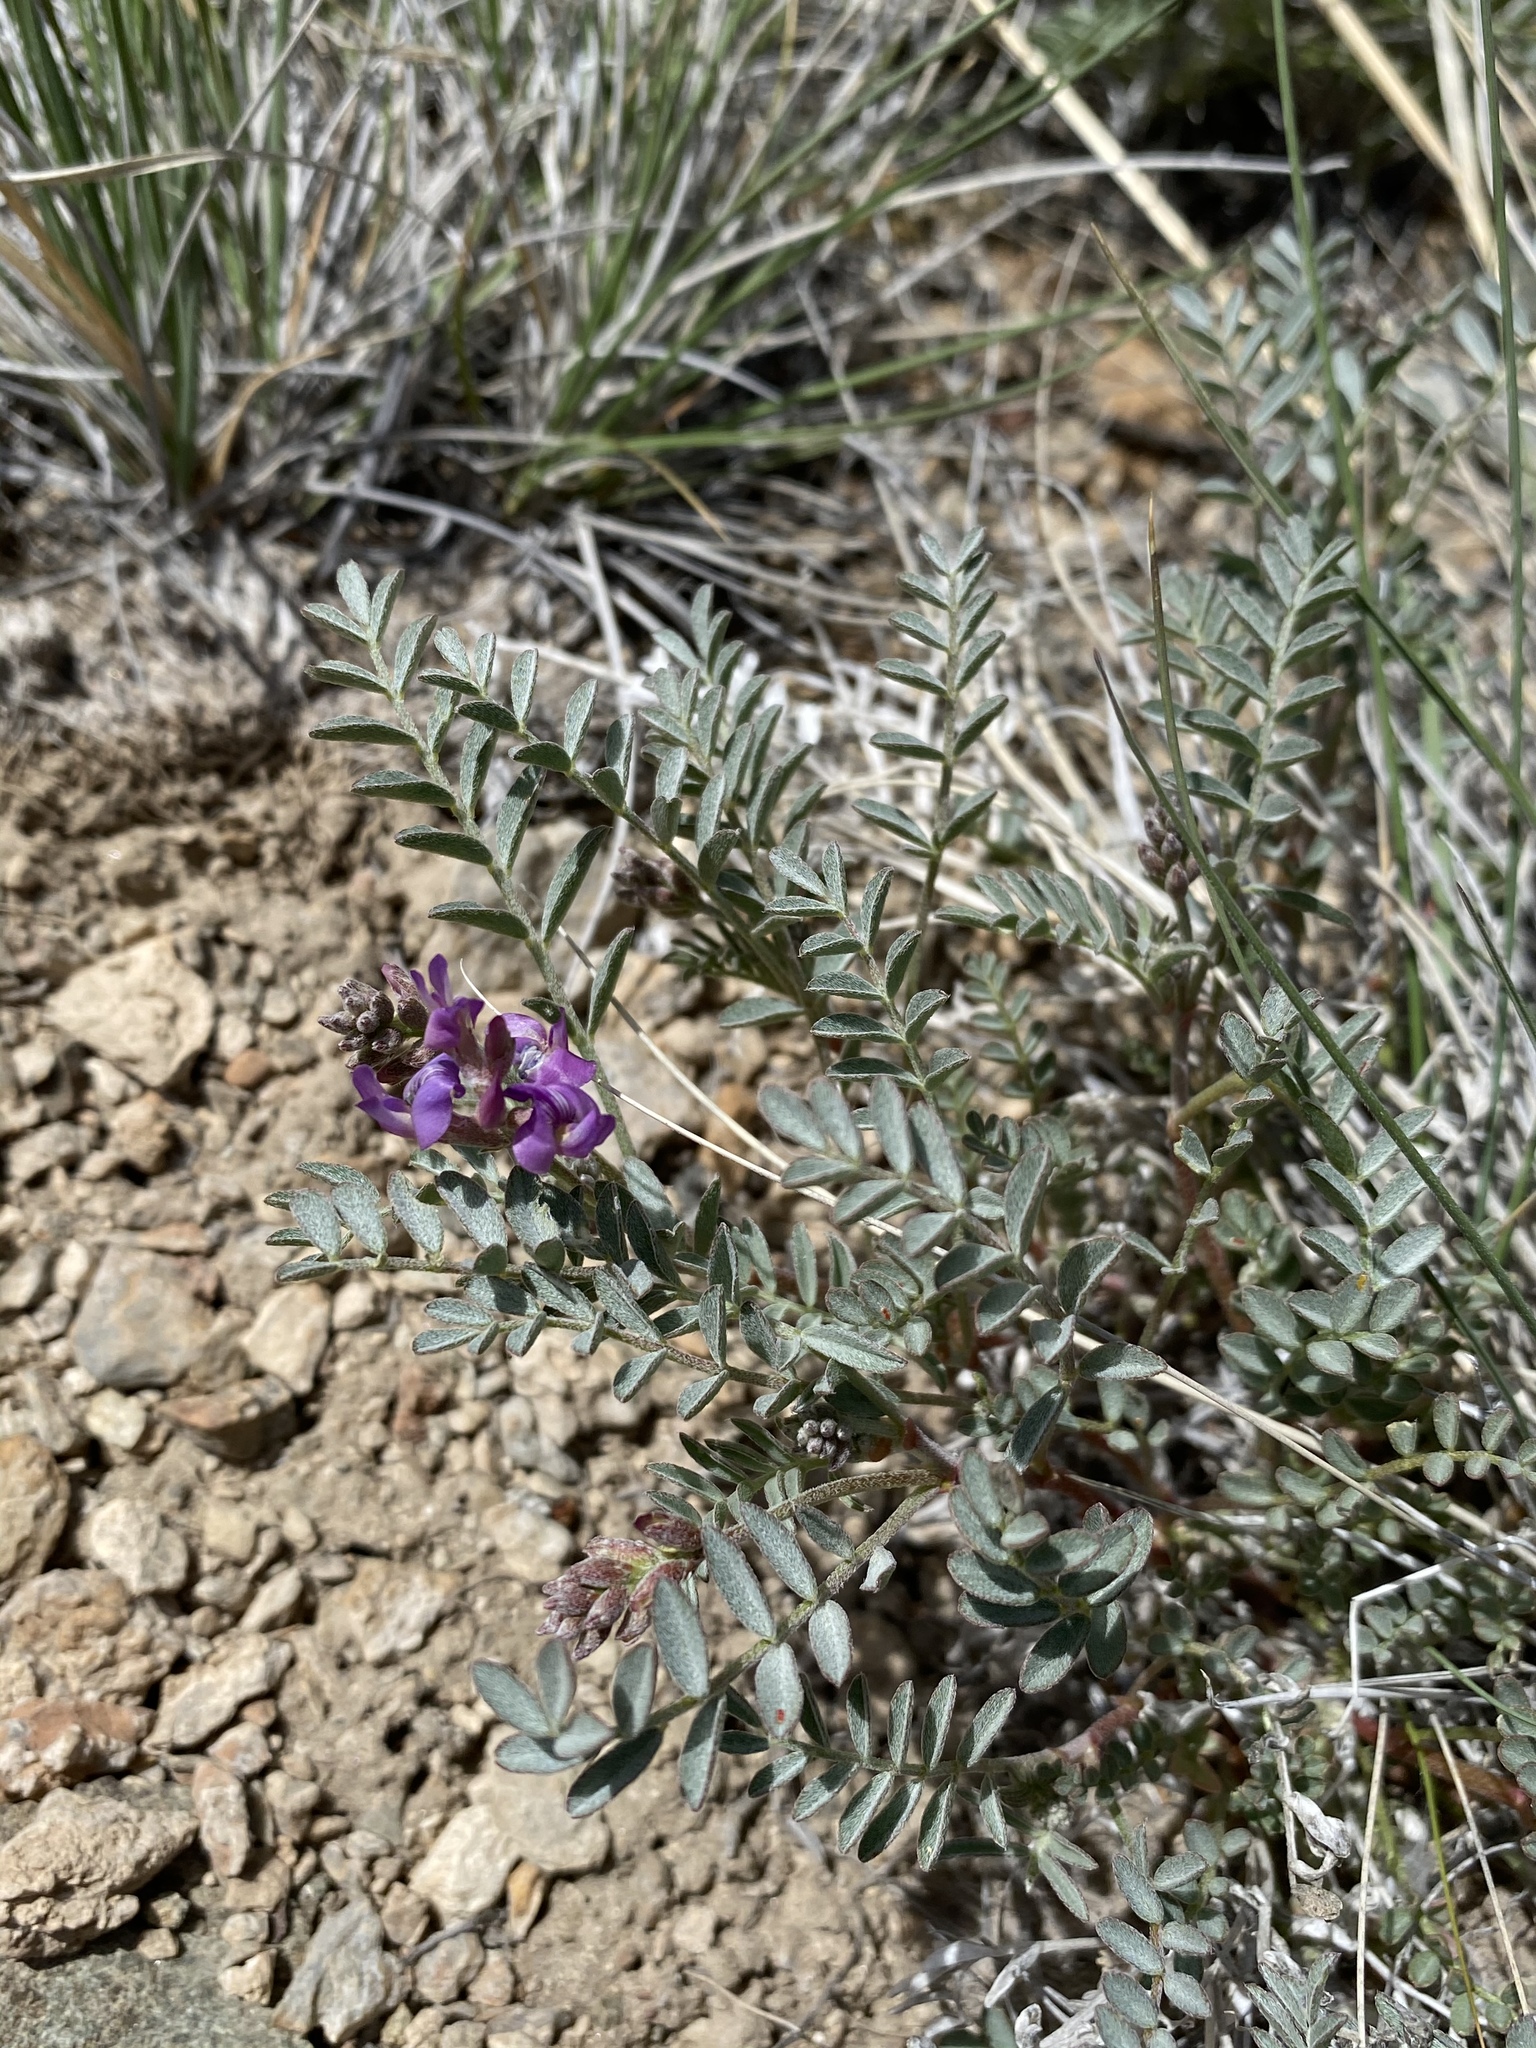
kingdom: Plantae
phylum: Tracheophyta
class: Magnoliopsida
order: Fabales
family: Fabaceae
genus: Astragalus
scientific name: Astragalus lentiginosus
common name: Freckled milkvetch
